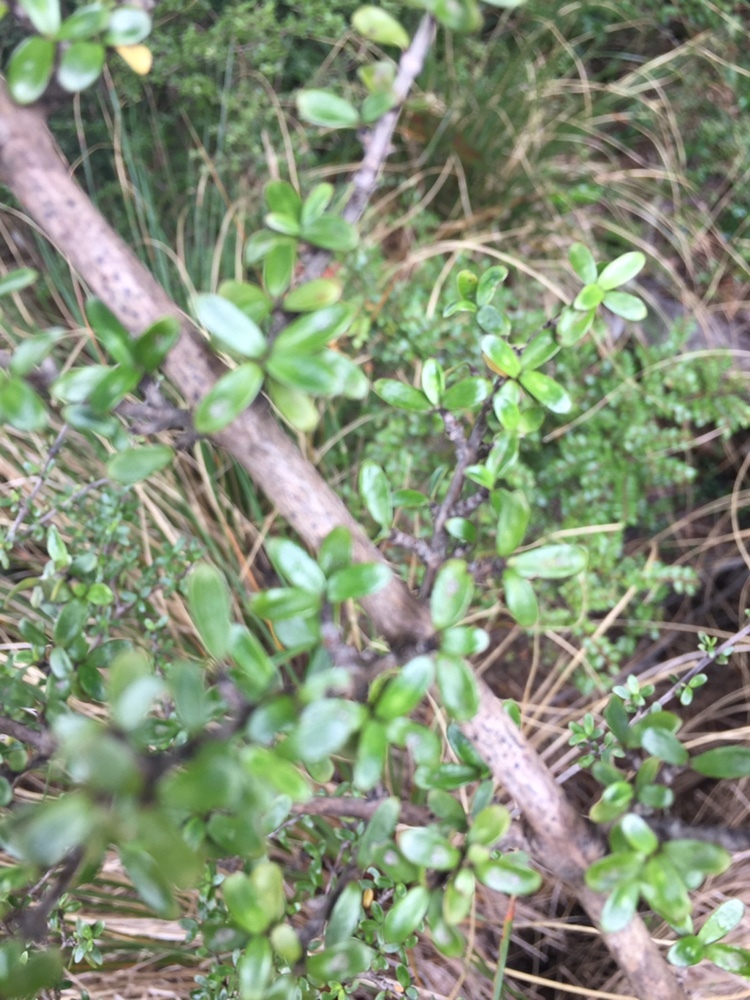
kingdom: Plantae
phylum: Tracheophyta
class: Magnoliopsida
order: Gentianales
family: Rubiaceae
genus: Coprosma
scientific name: Coprosma dumosa
